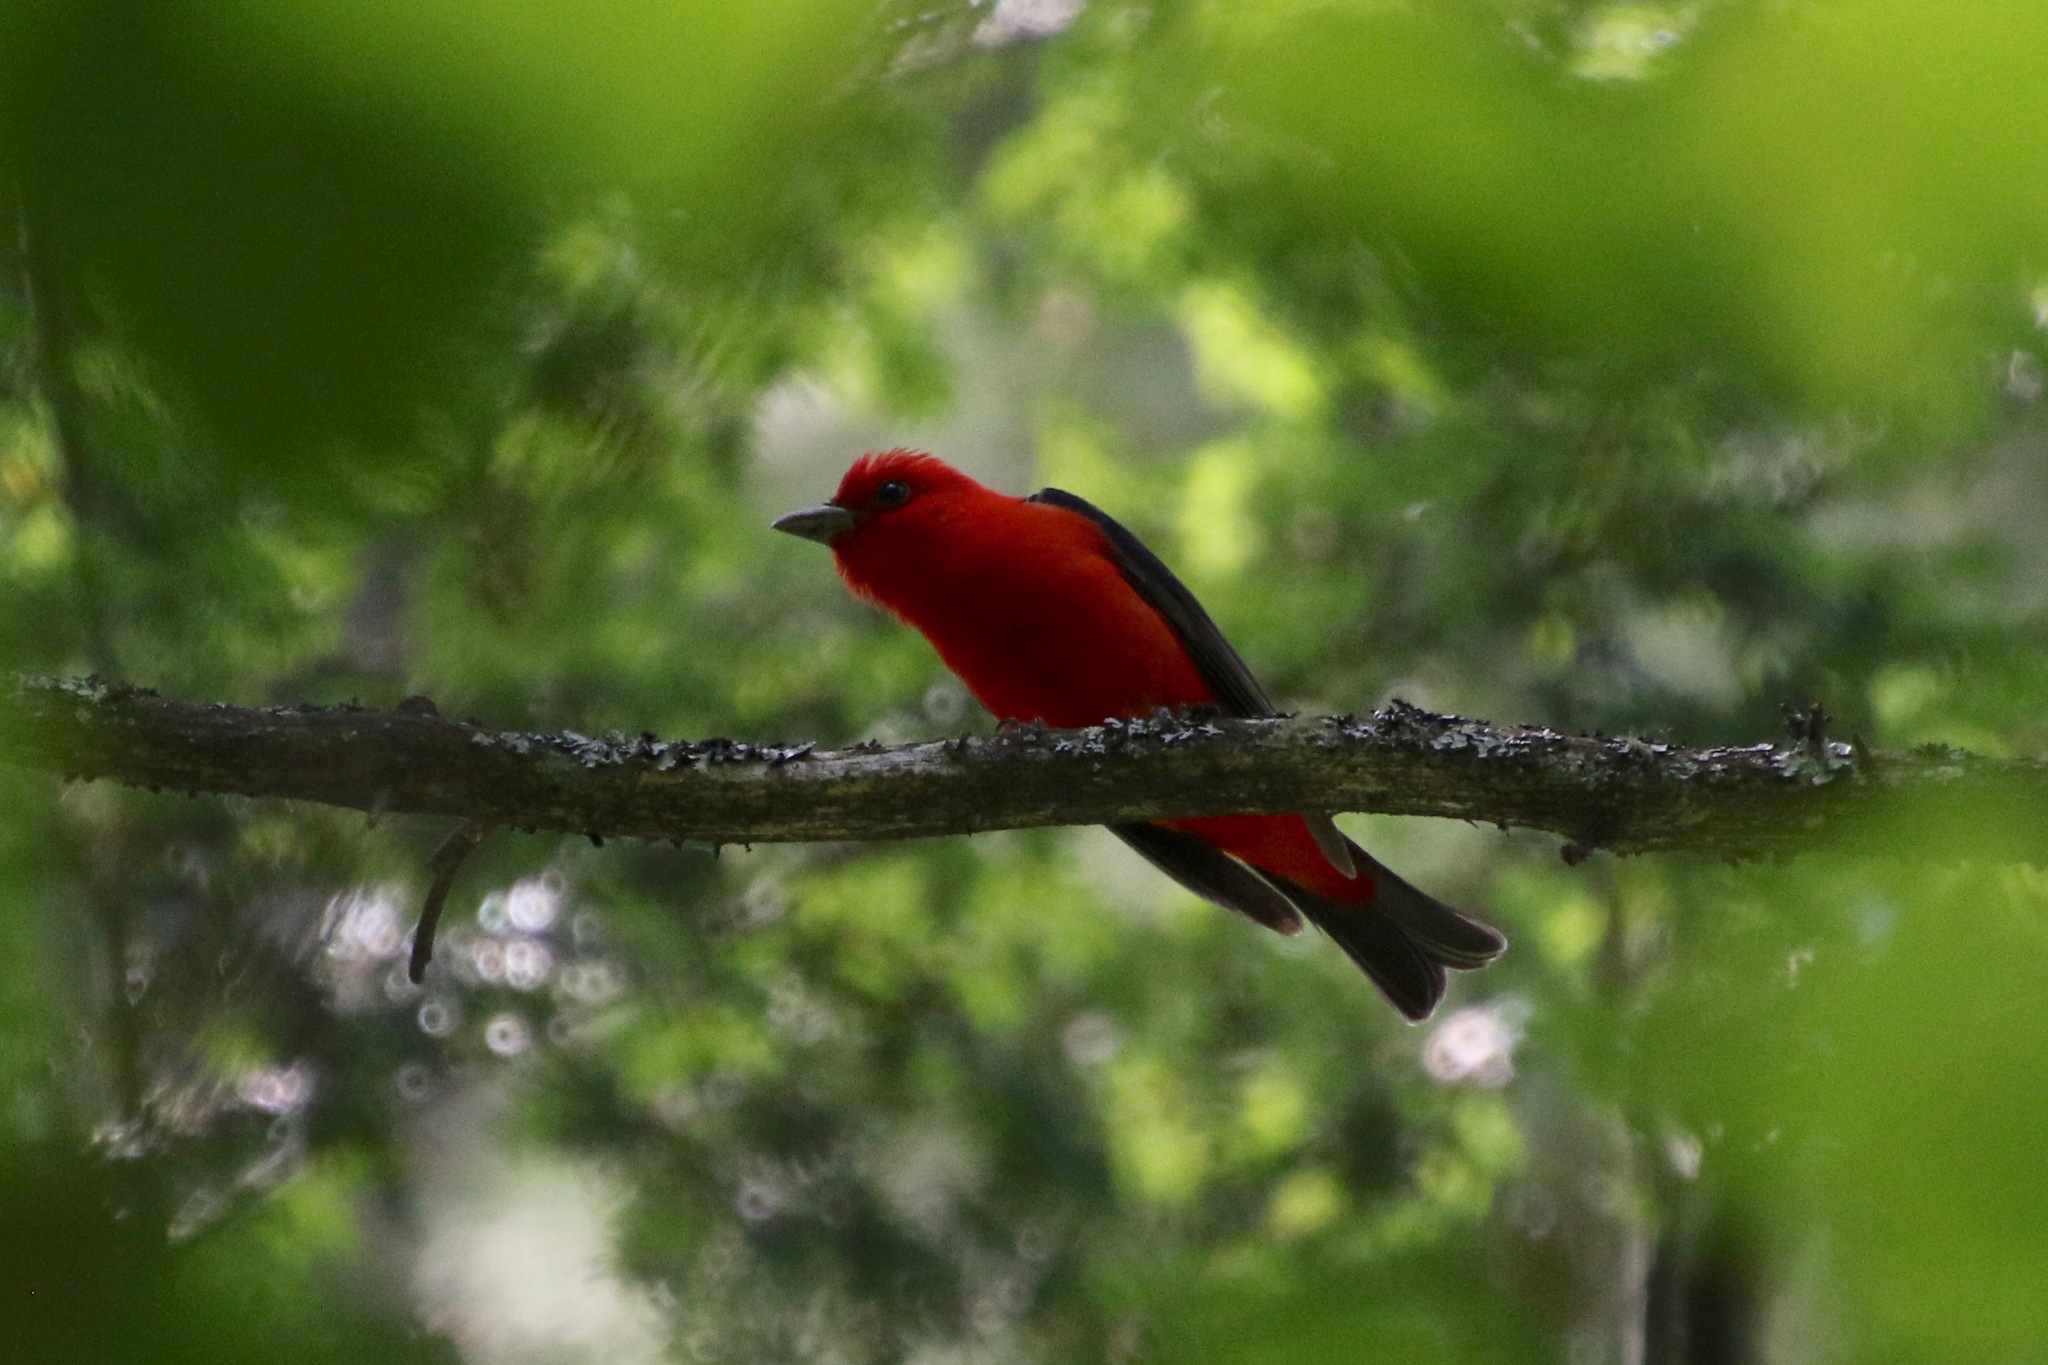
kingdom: Animalia
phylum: Chordata
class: Aves
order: Passeriformes
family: Cardinalidae
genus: Piranga
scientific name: Piranga olivacea
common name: Scarlet tanager
